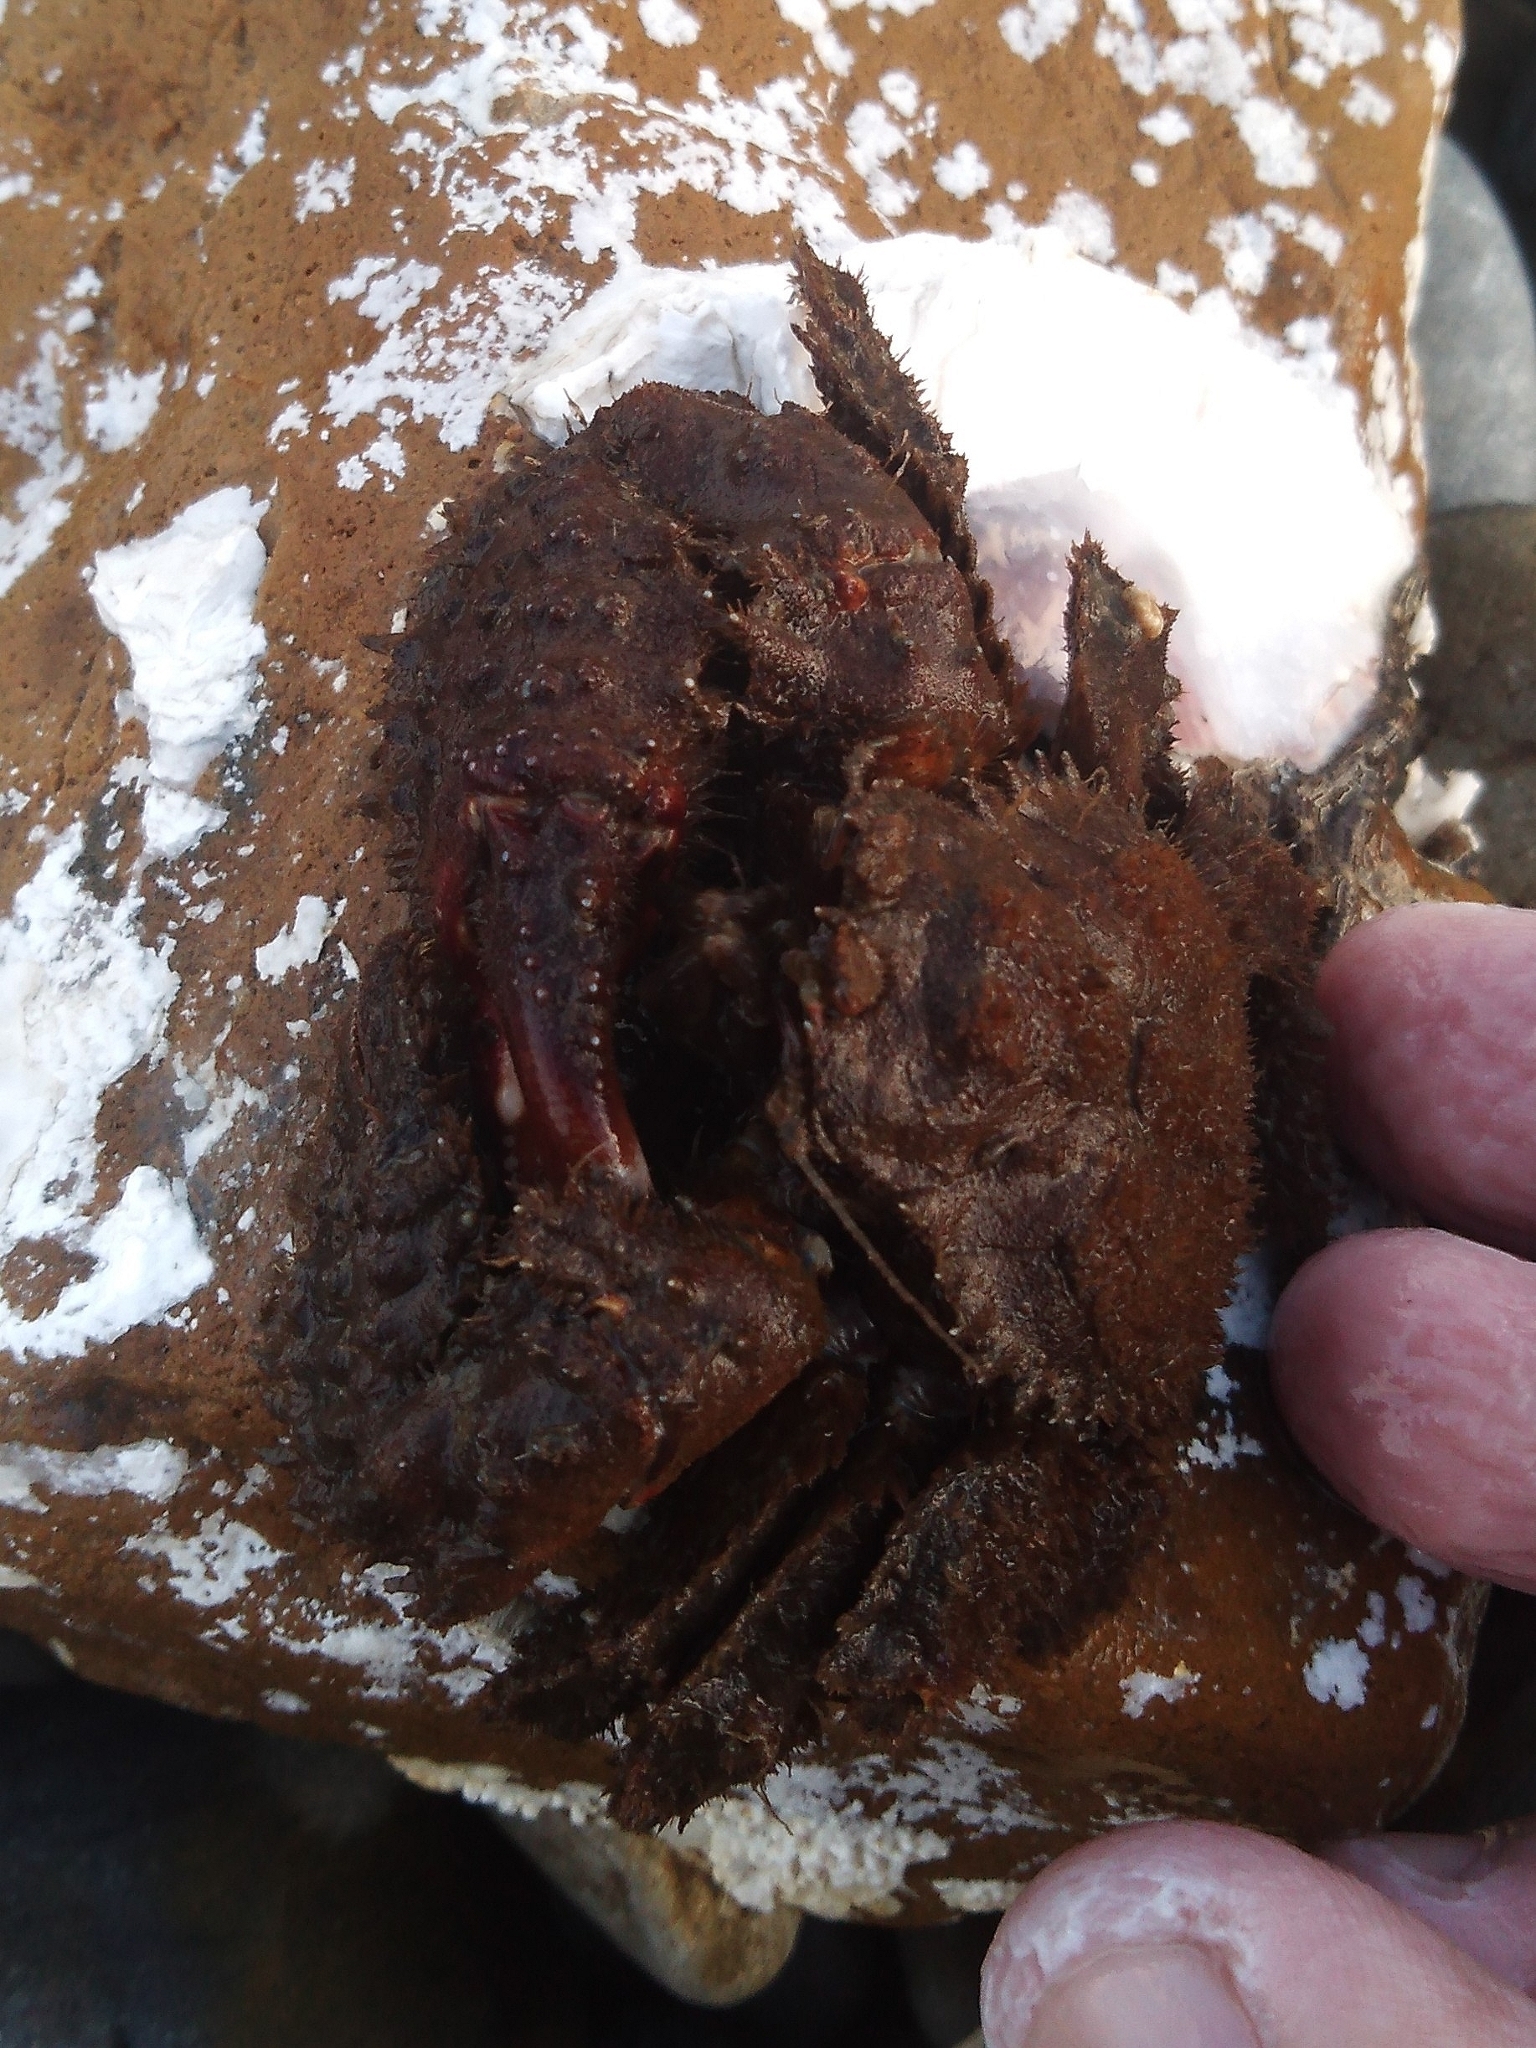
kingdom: Animalia
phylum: Arthropoda
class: Malacostraca
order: Decapoda
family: Hapalogastridae
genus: Hapalogaster
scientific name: Hapalogaster dentata
